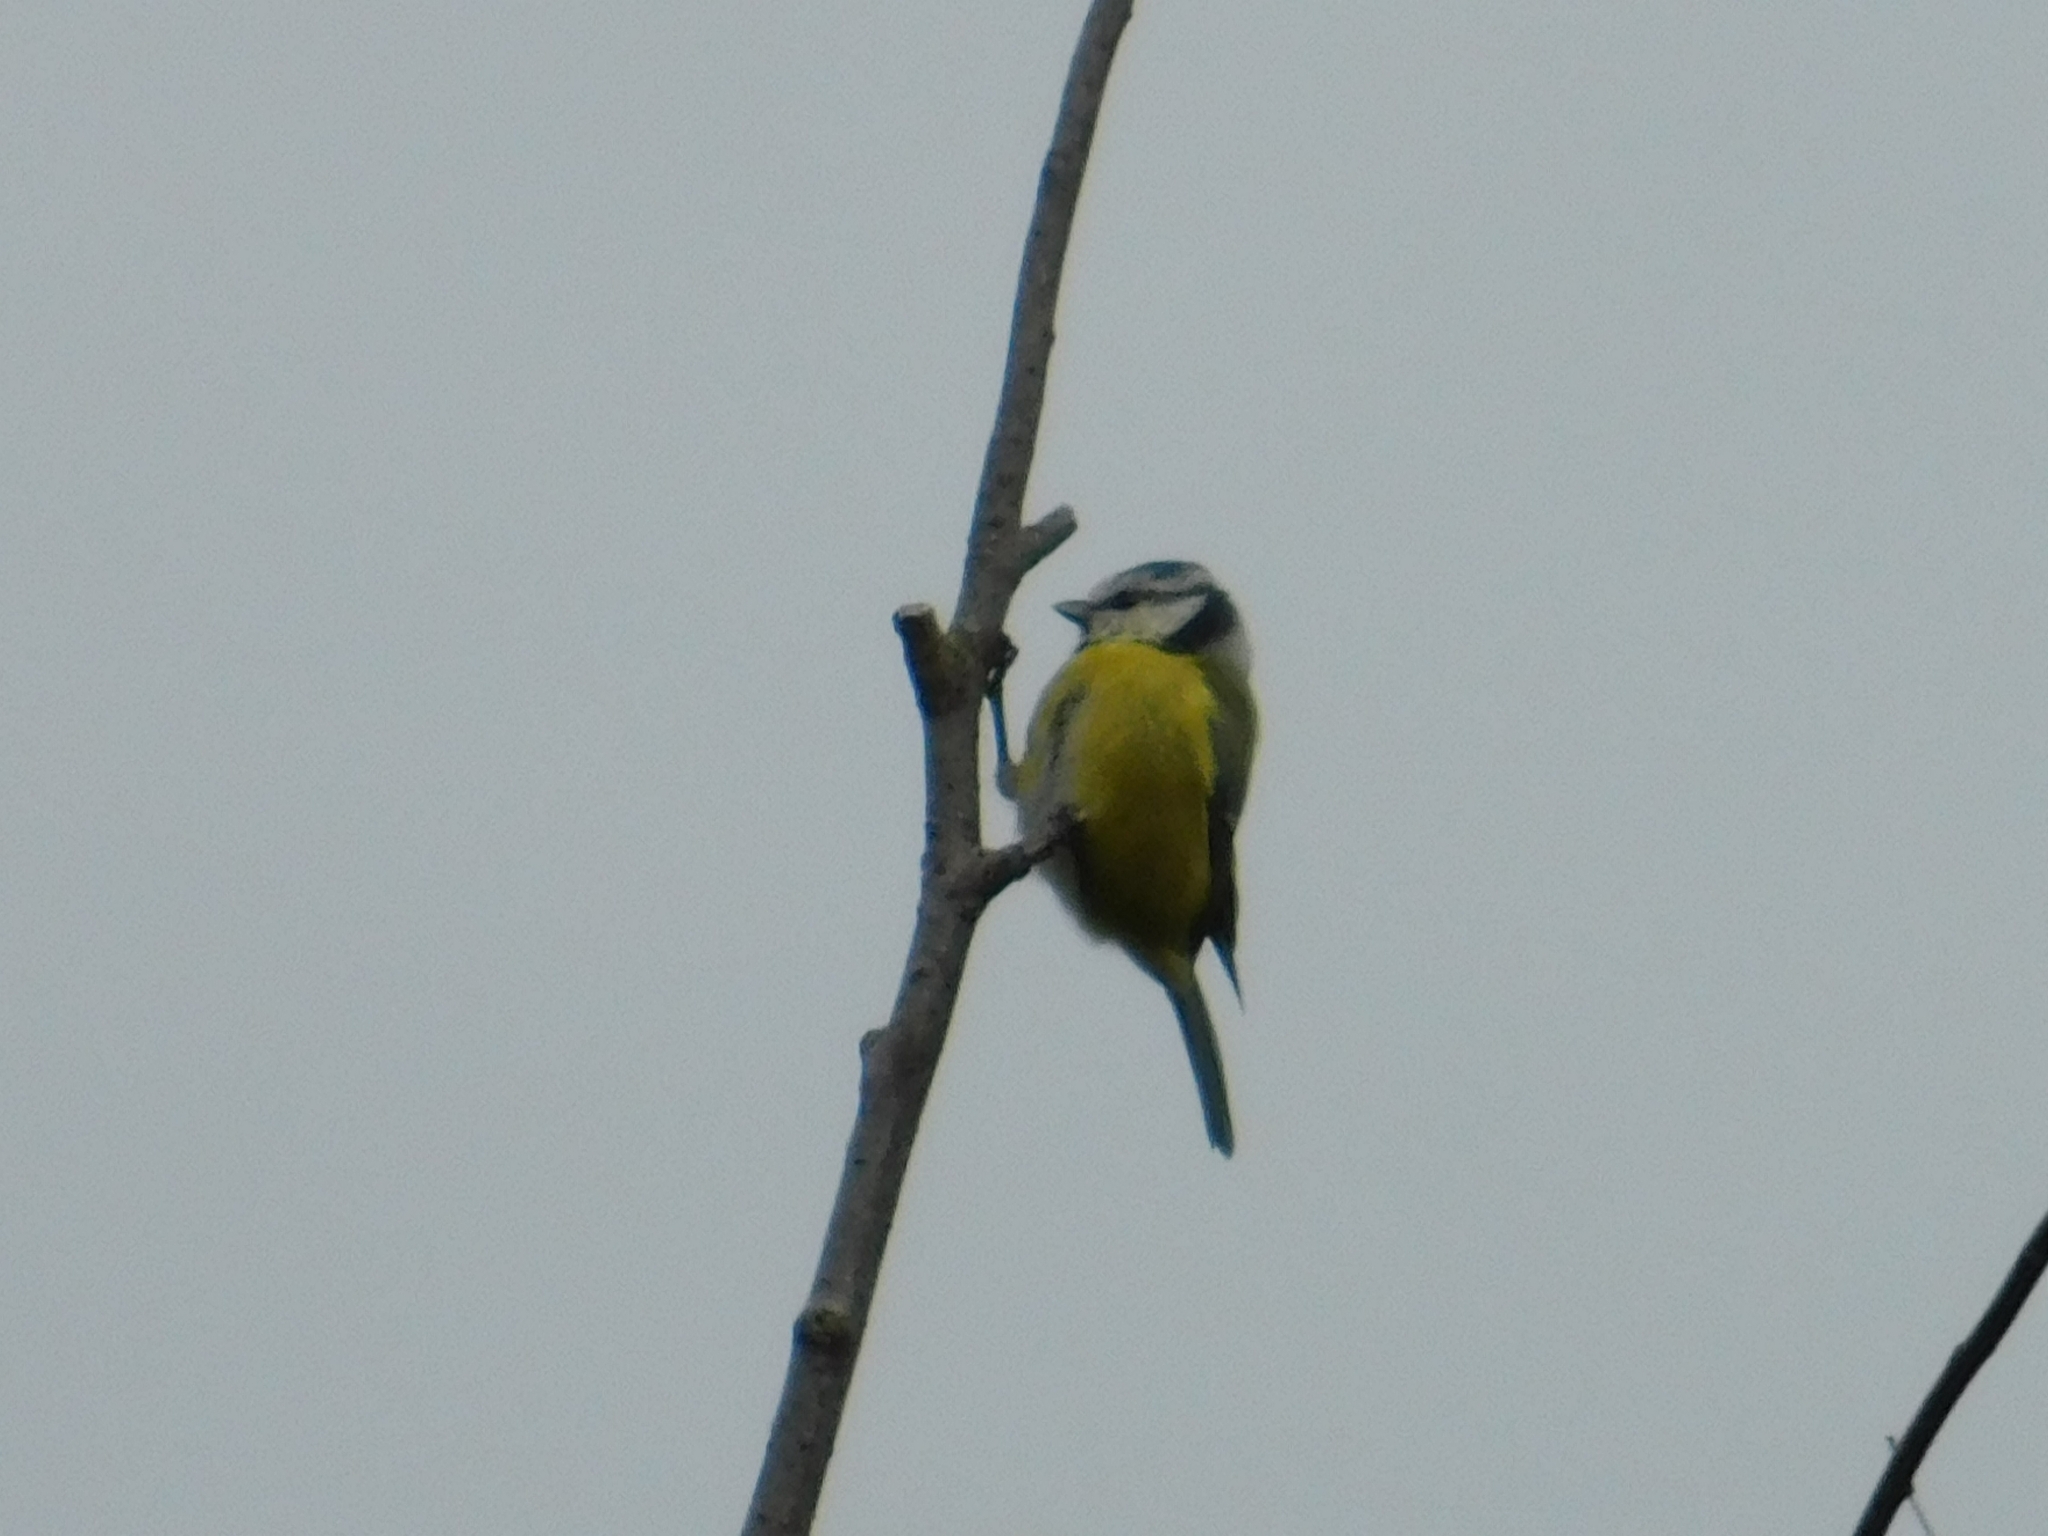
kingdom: Animalia
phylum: Chordata
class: Aves
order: Passeriformes
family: Paridae
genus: Cyanistes
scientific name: Cyanistes caeruleus
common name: Eurasian blue tit
